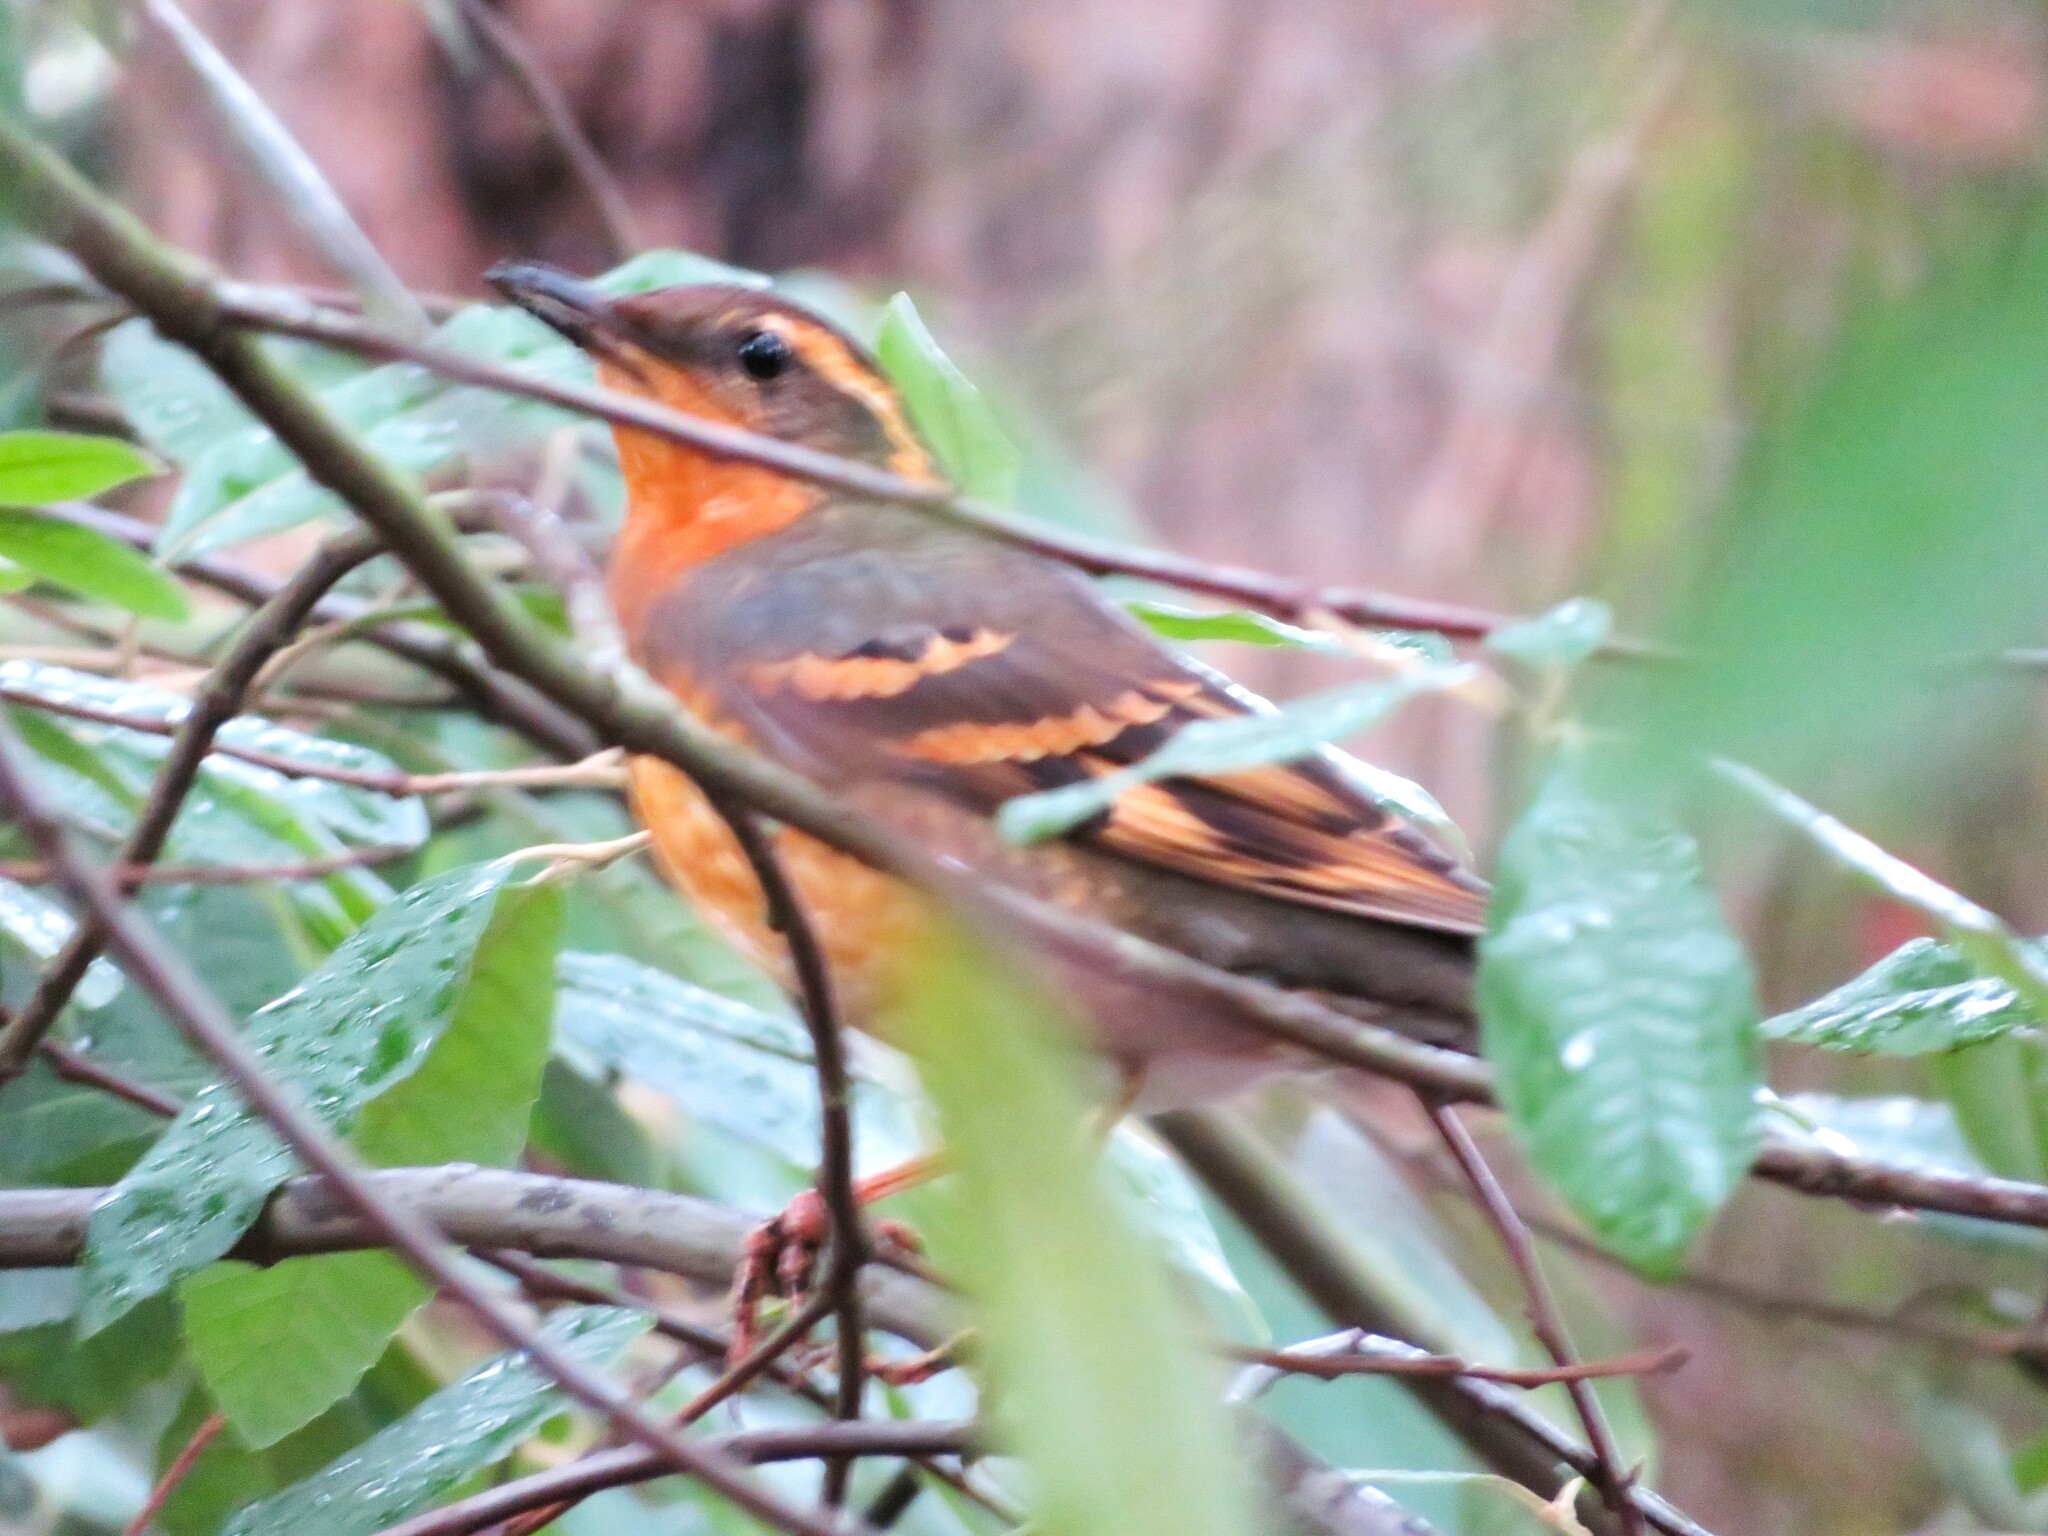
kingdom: Animalia
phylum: Chordata
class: Aves
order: Passeriformes
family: Turdidae
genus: Ixoreus
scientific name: Ixoreus naevius
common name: Varied thrush
